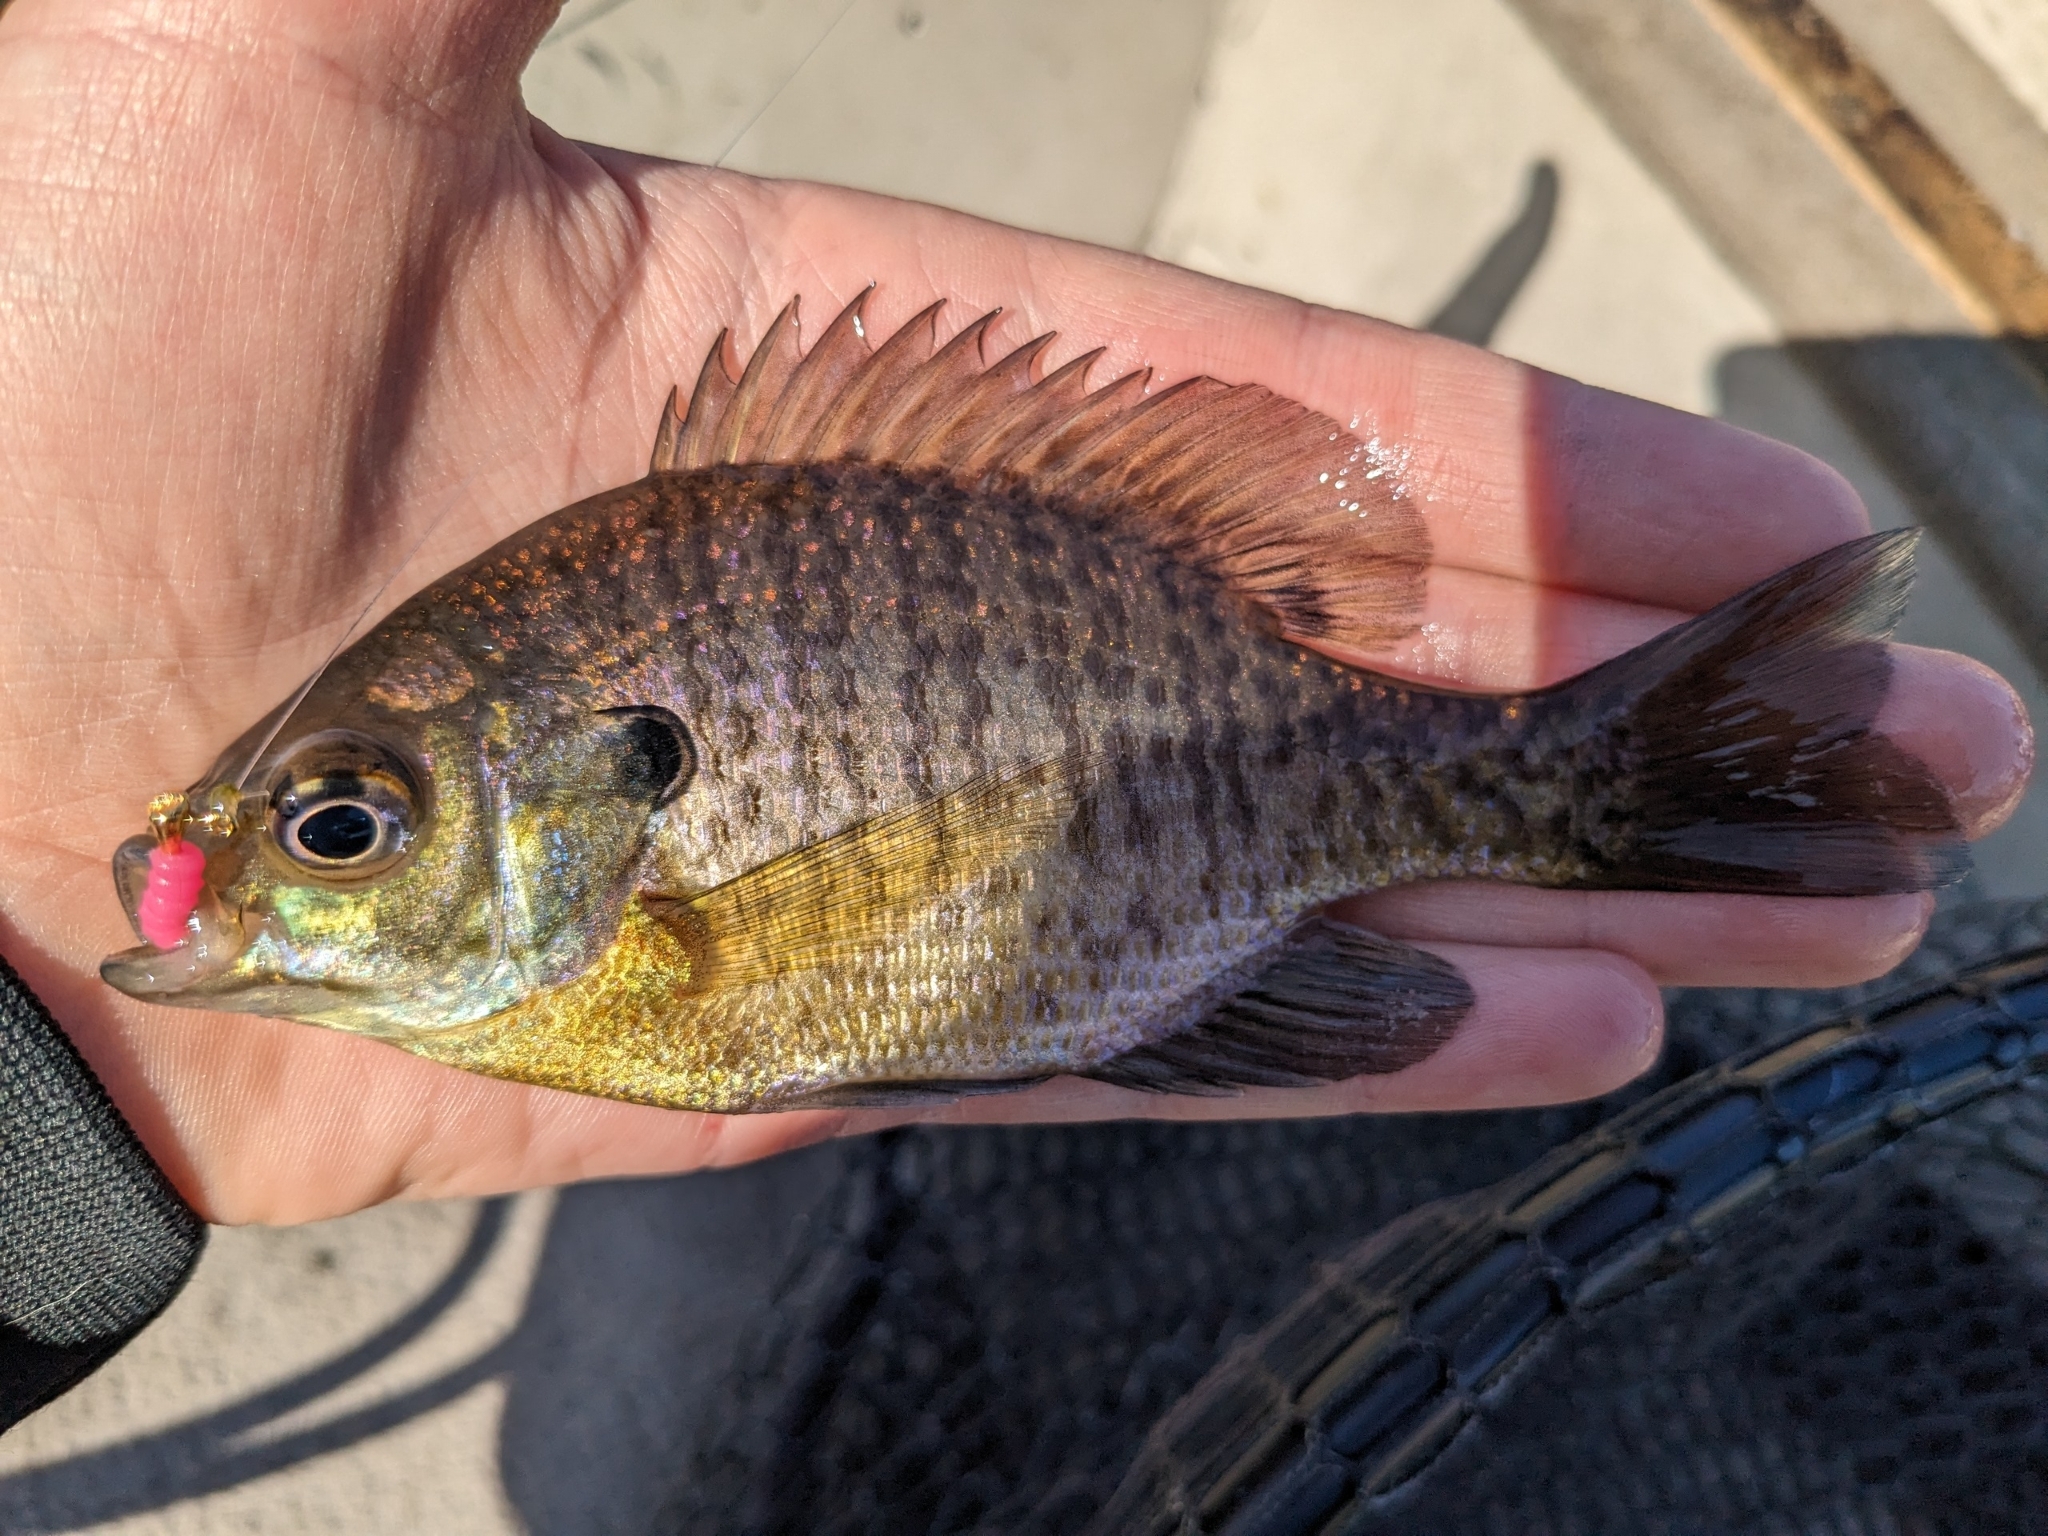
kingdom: Animalia
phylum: Chordata
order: Perciformes
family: Centrarchidae
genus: Lepomis
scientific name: Lepomis macrochirus
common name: Bluegill
